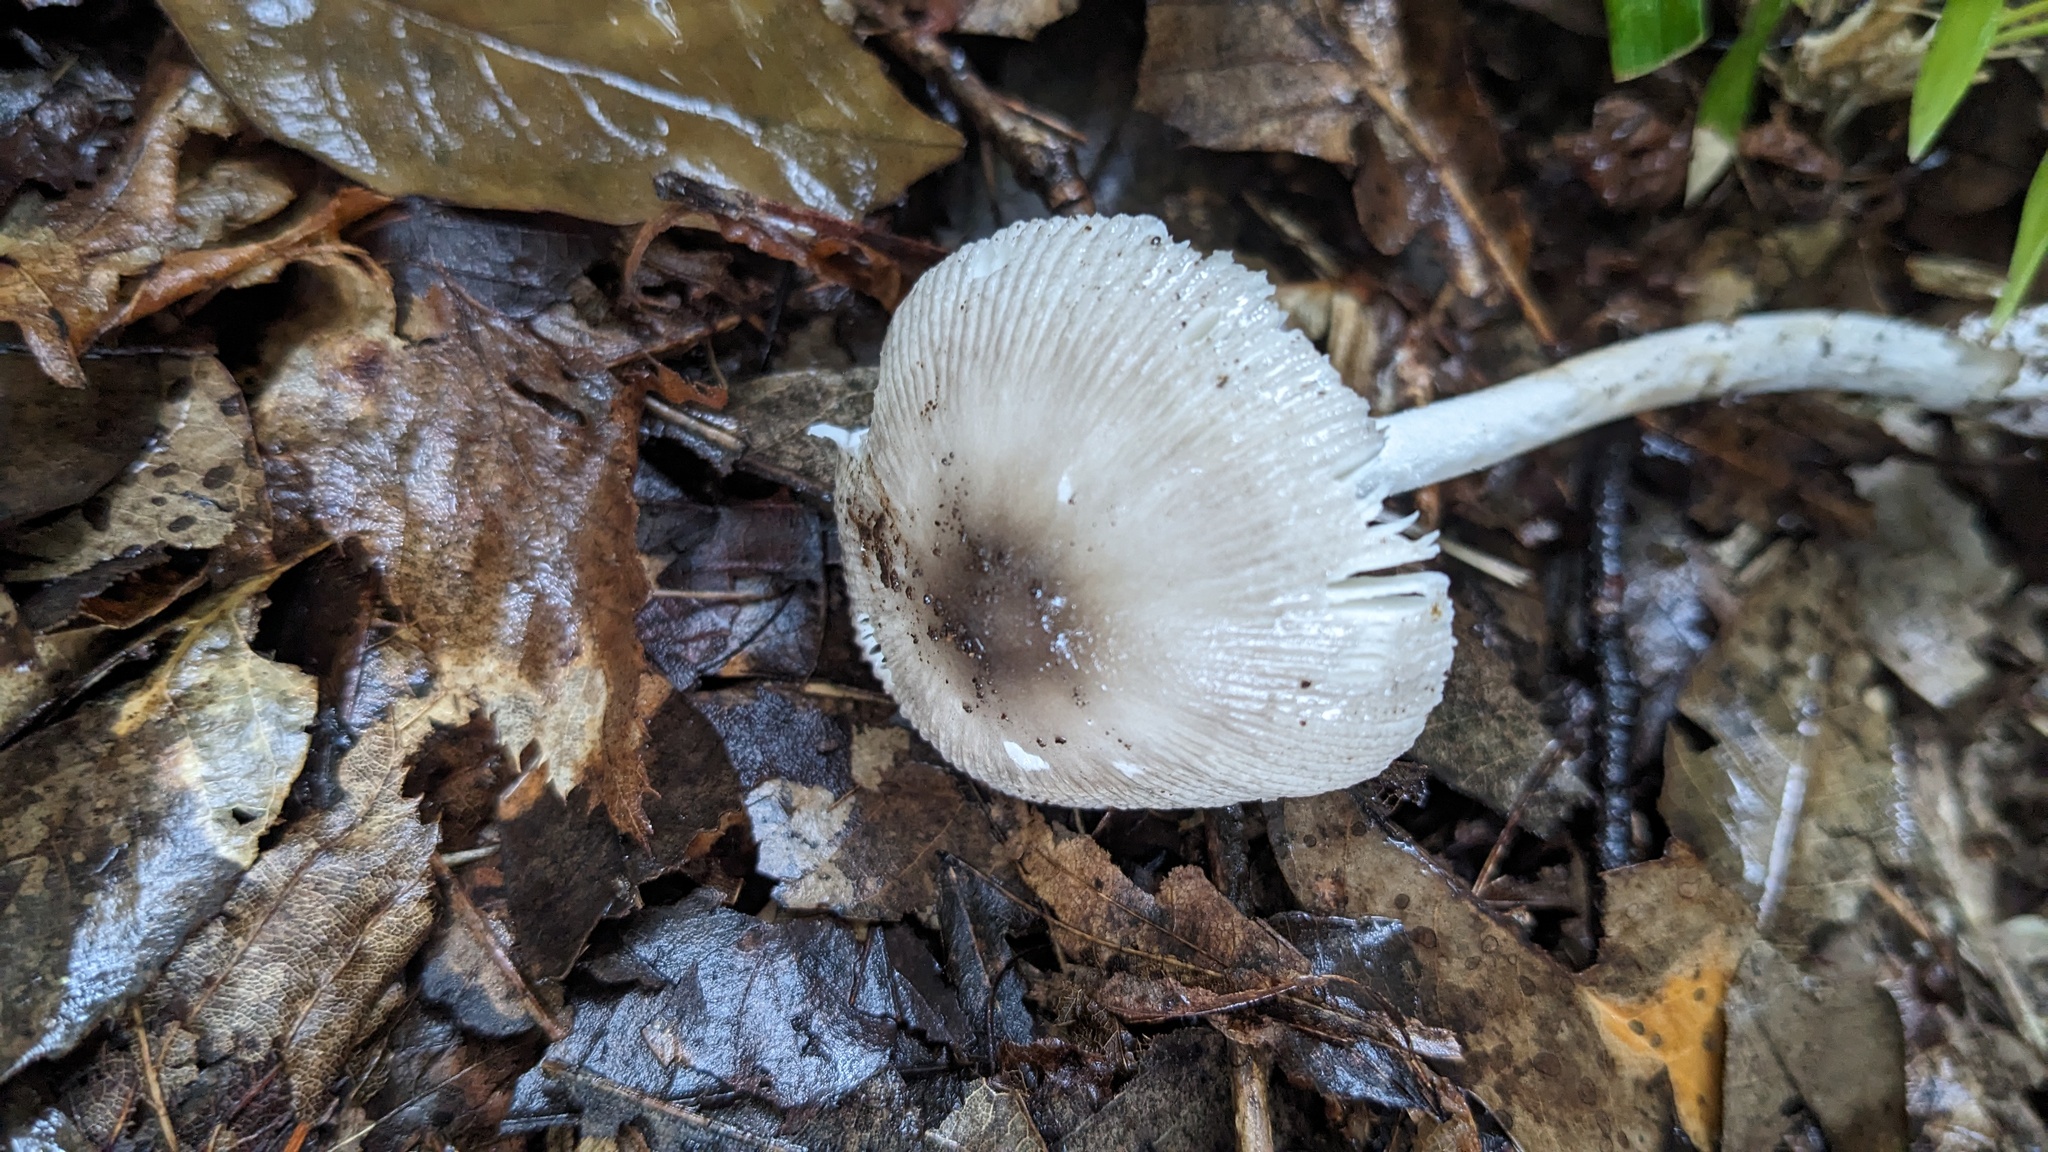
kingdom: Fungi
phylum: Basidiomycota
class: Agaricomycetes
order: Agaricales
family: Amanitaceae
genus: Amanita
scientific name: Amanita vaginata
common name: Grisette
